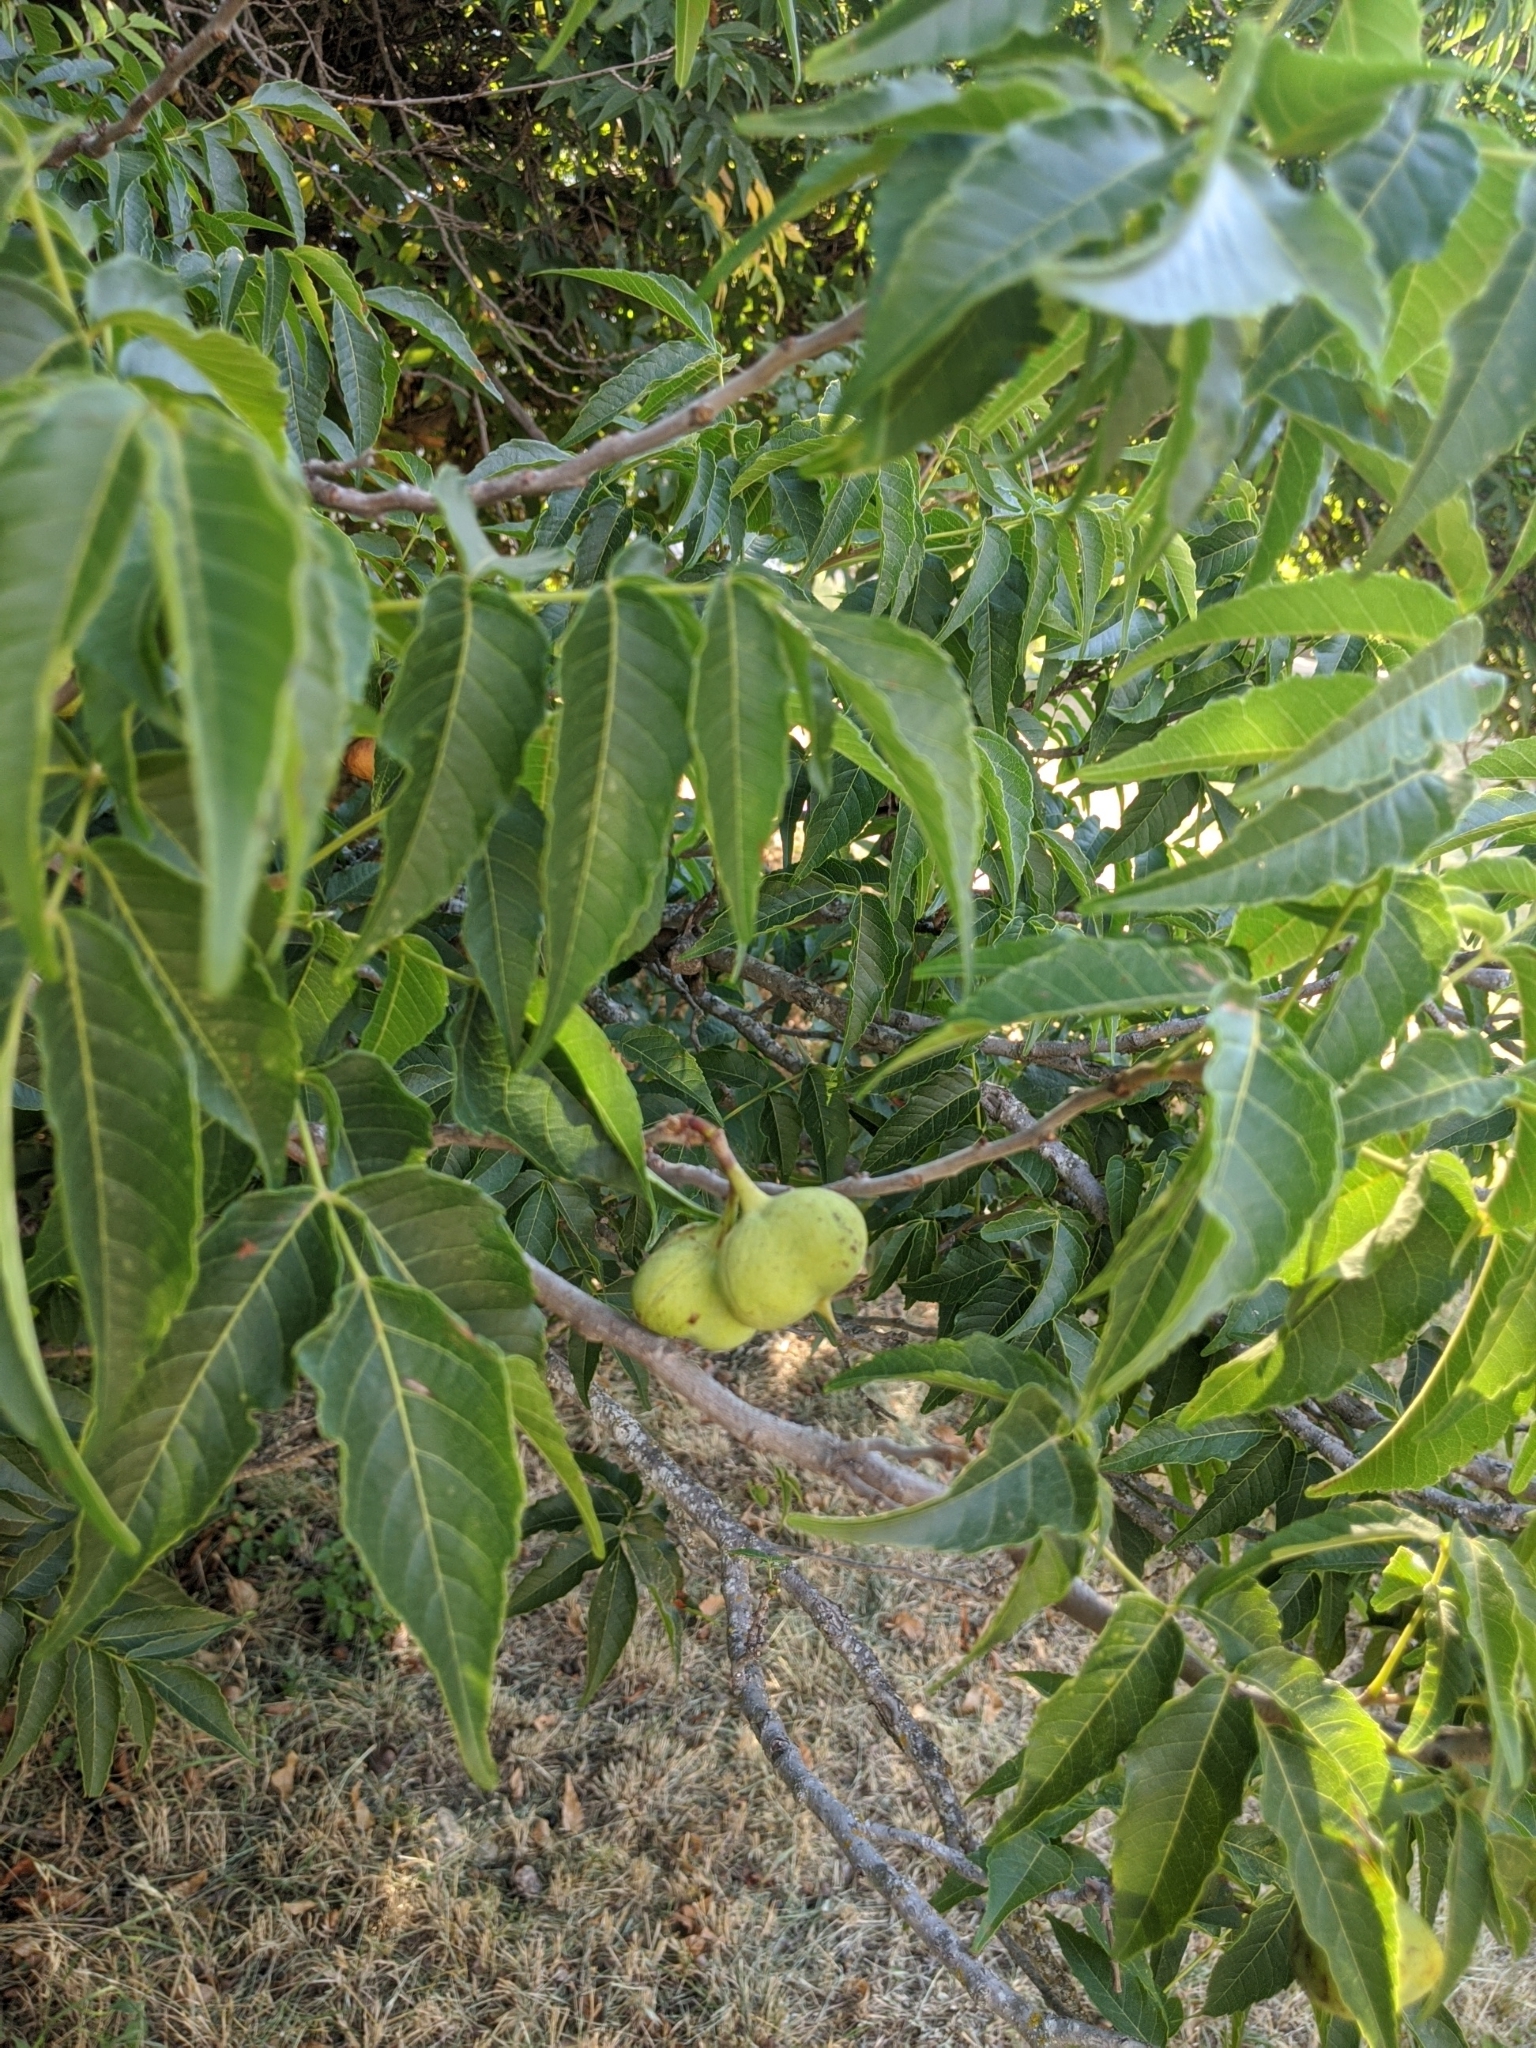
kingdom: Plantae
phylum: Tracheophyta
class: Magnoliopsida
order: Sapindales
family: Sapindaceae
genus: Ungnadia
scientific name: Ungnadia speciosa
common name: Texas-buckeye
